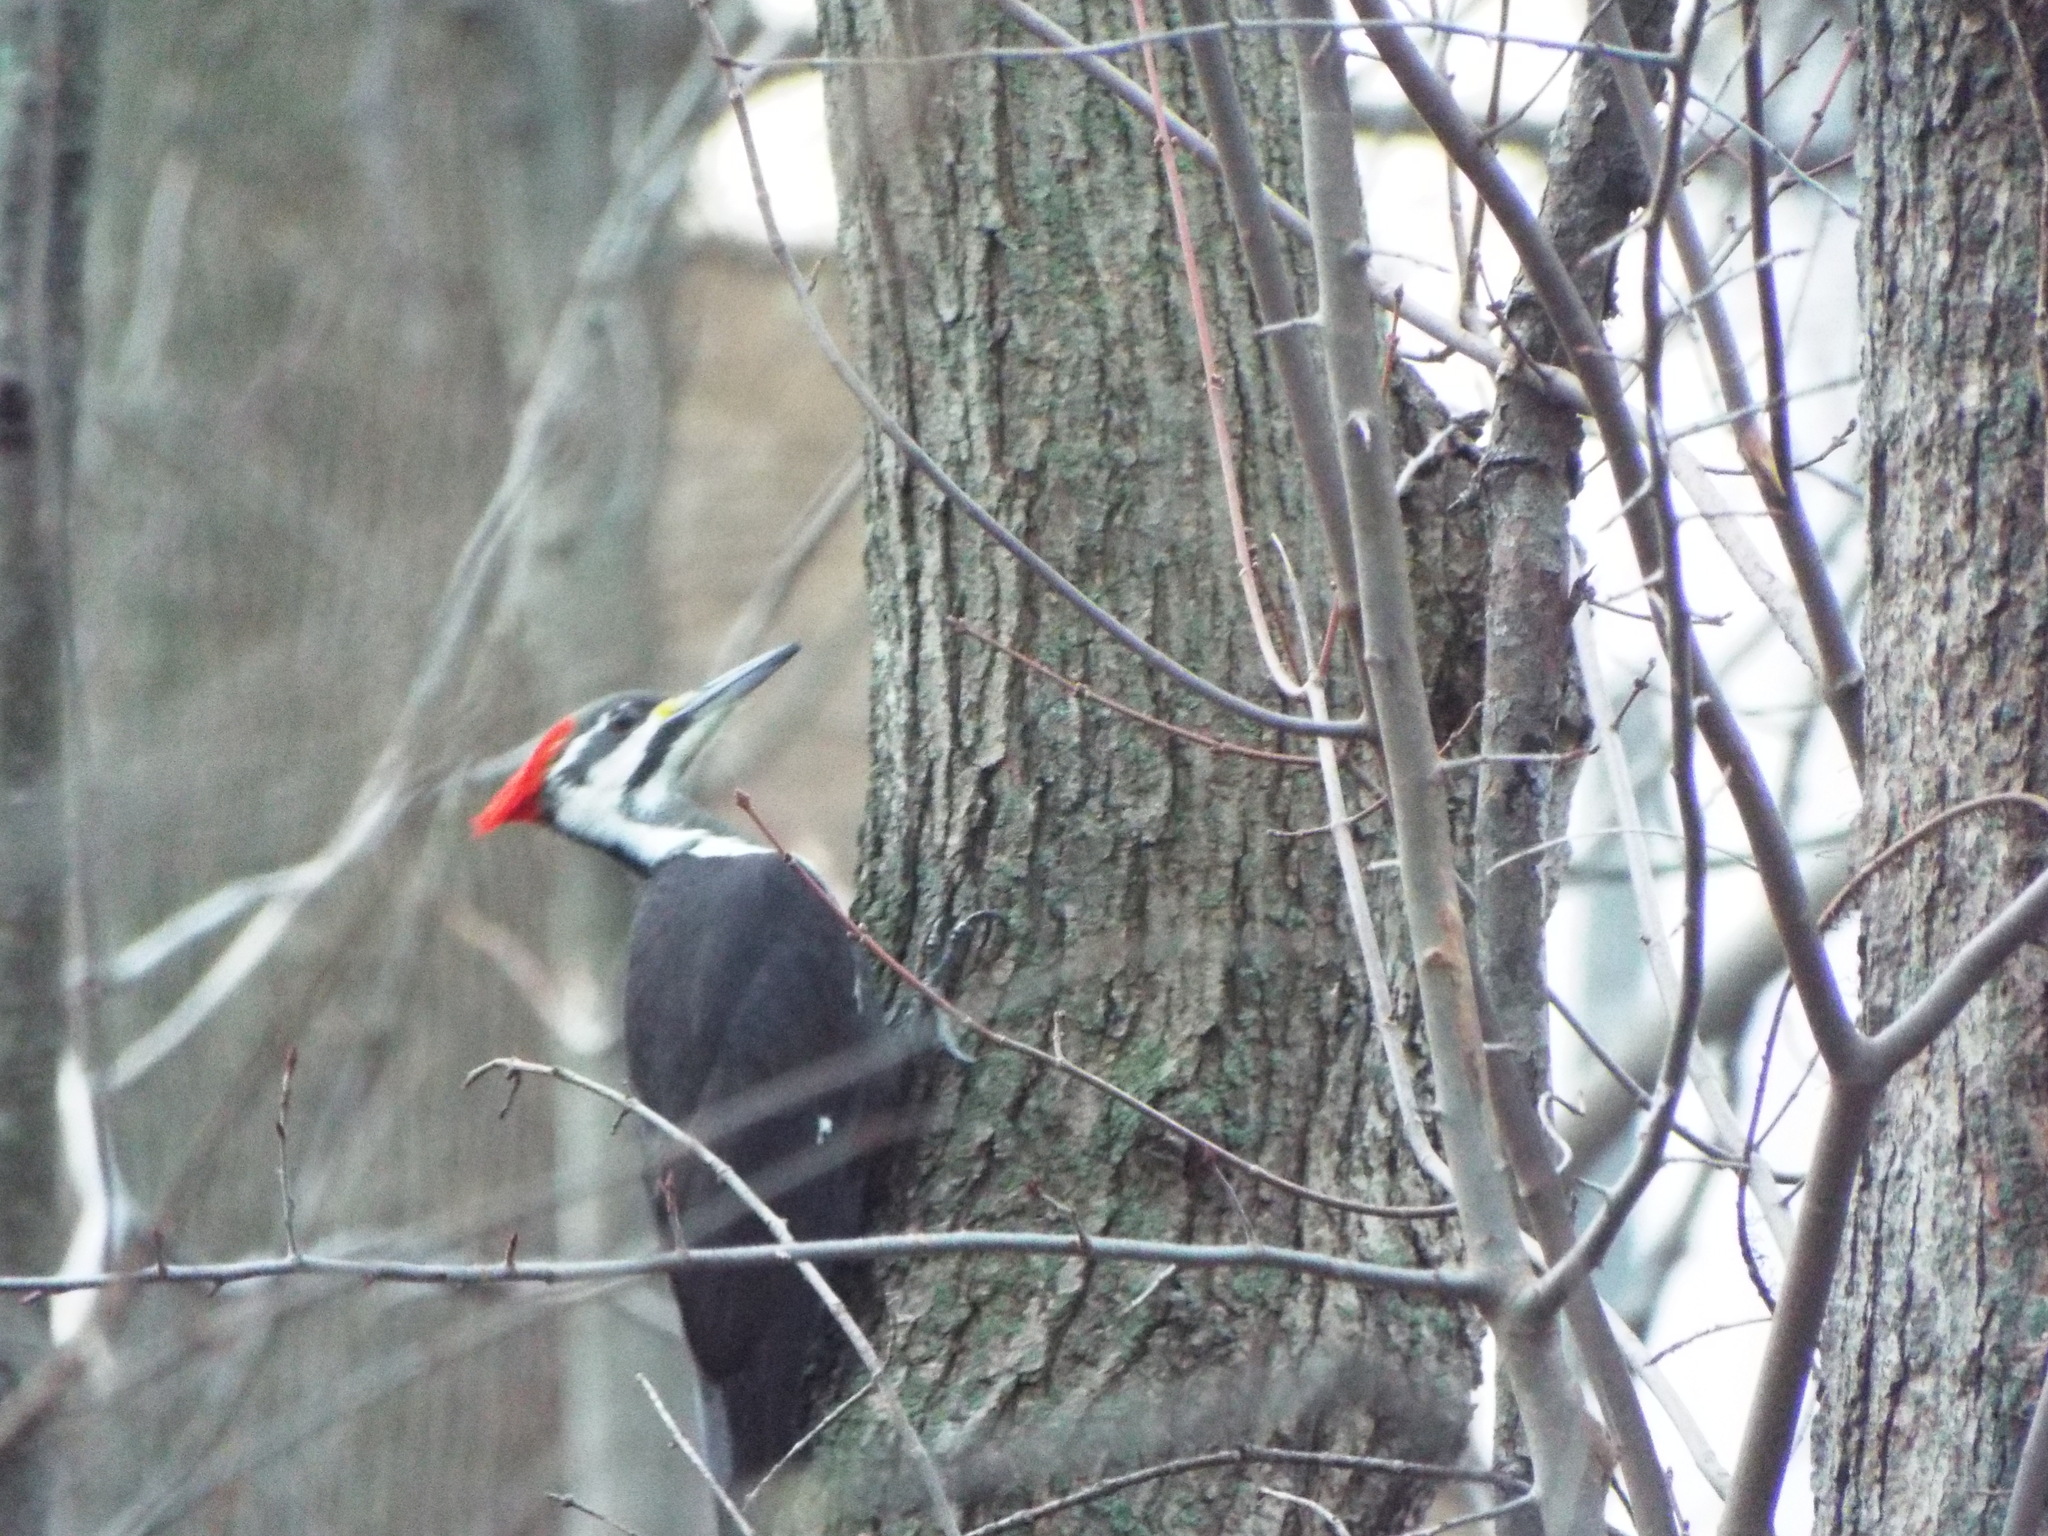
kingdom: Animalia
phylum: Chordata
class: Aves
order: Piciformes
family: Picidae
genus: Dryocopus
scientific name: Dryocopus pileatus
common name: Pileated woodpecker
